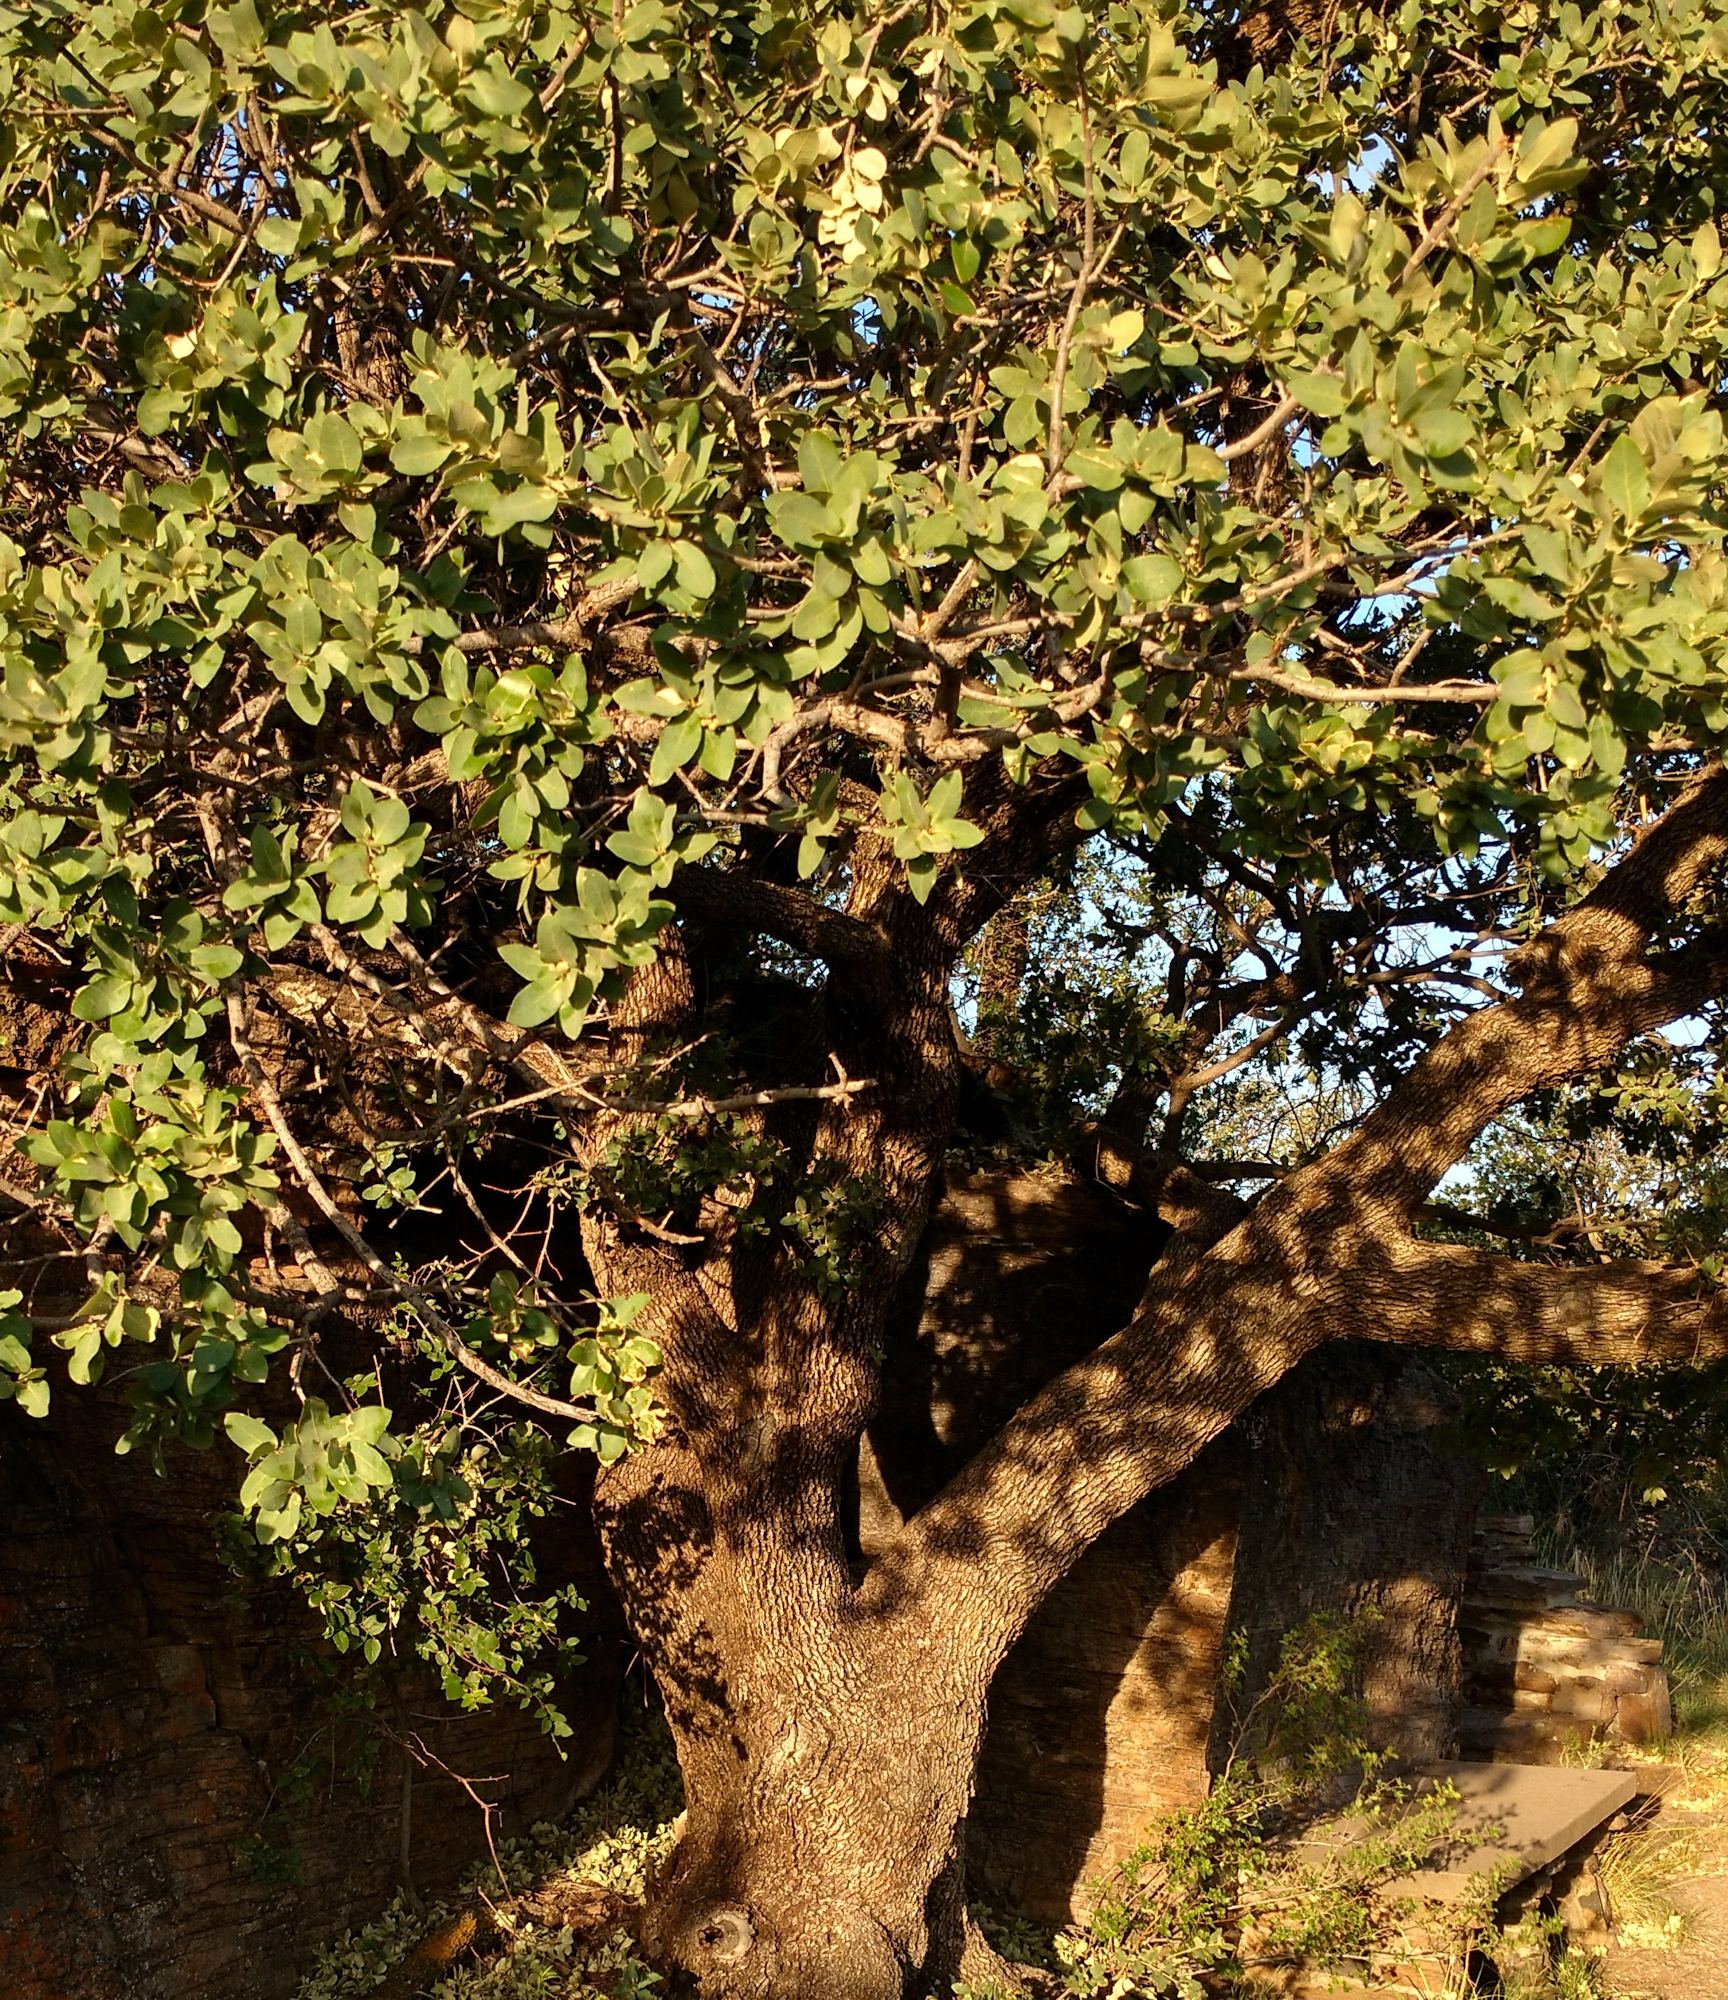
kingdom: Plantae
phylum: Tracheophyta
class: Magnoliopsida
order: Fagales
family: Fagaceae
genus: Quercus
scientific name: Quercus grisea
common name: Gray oak
